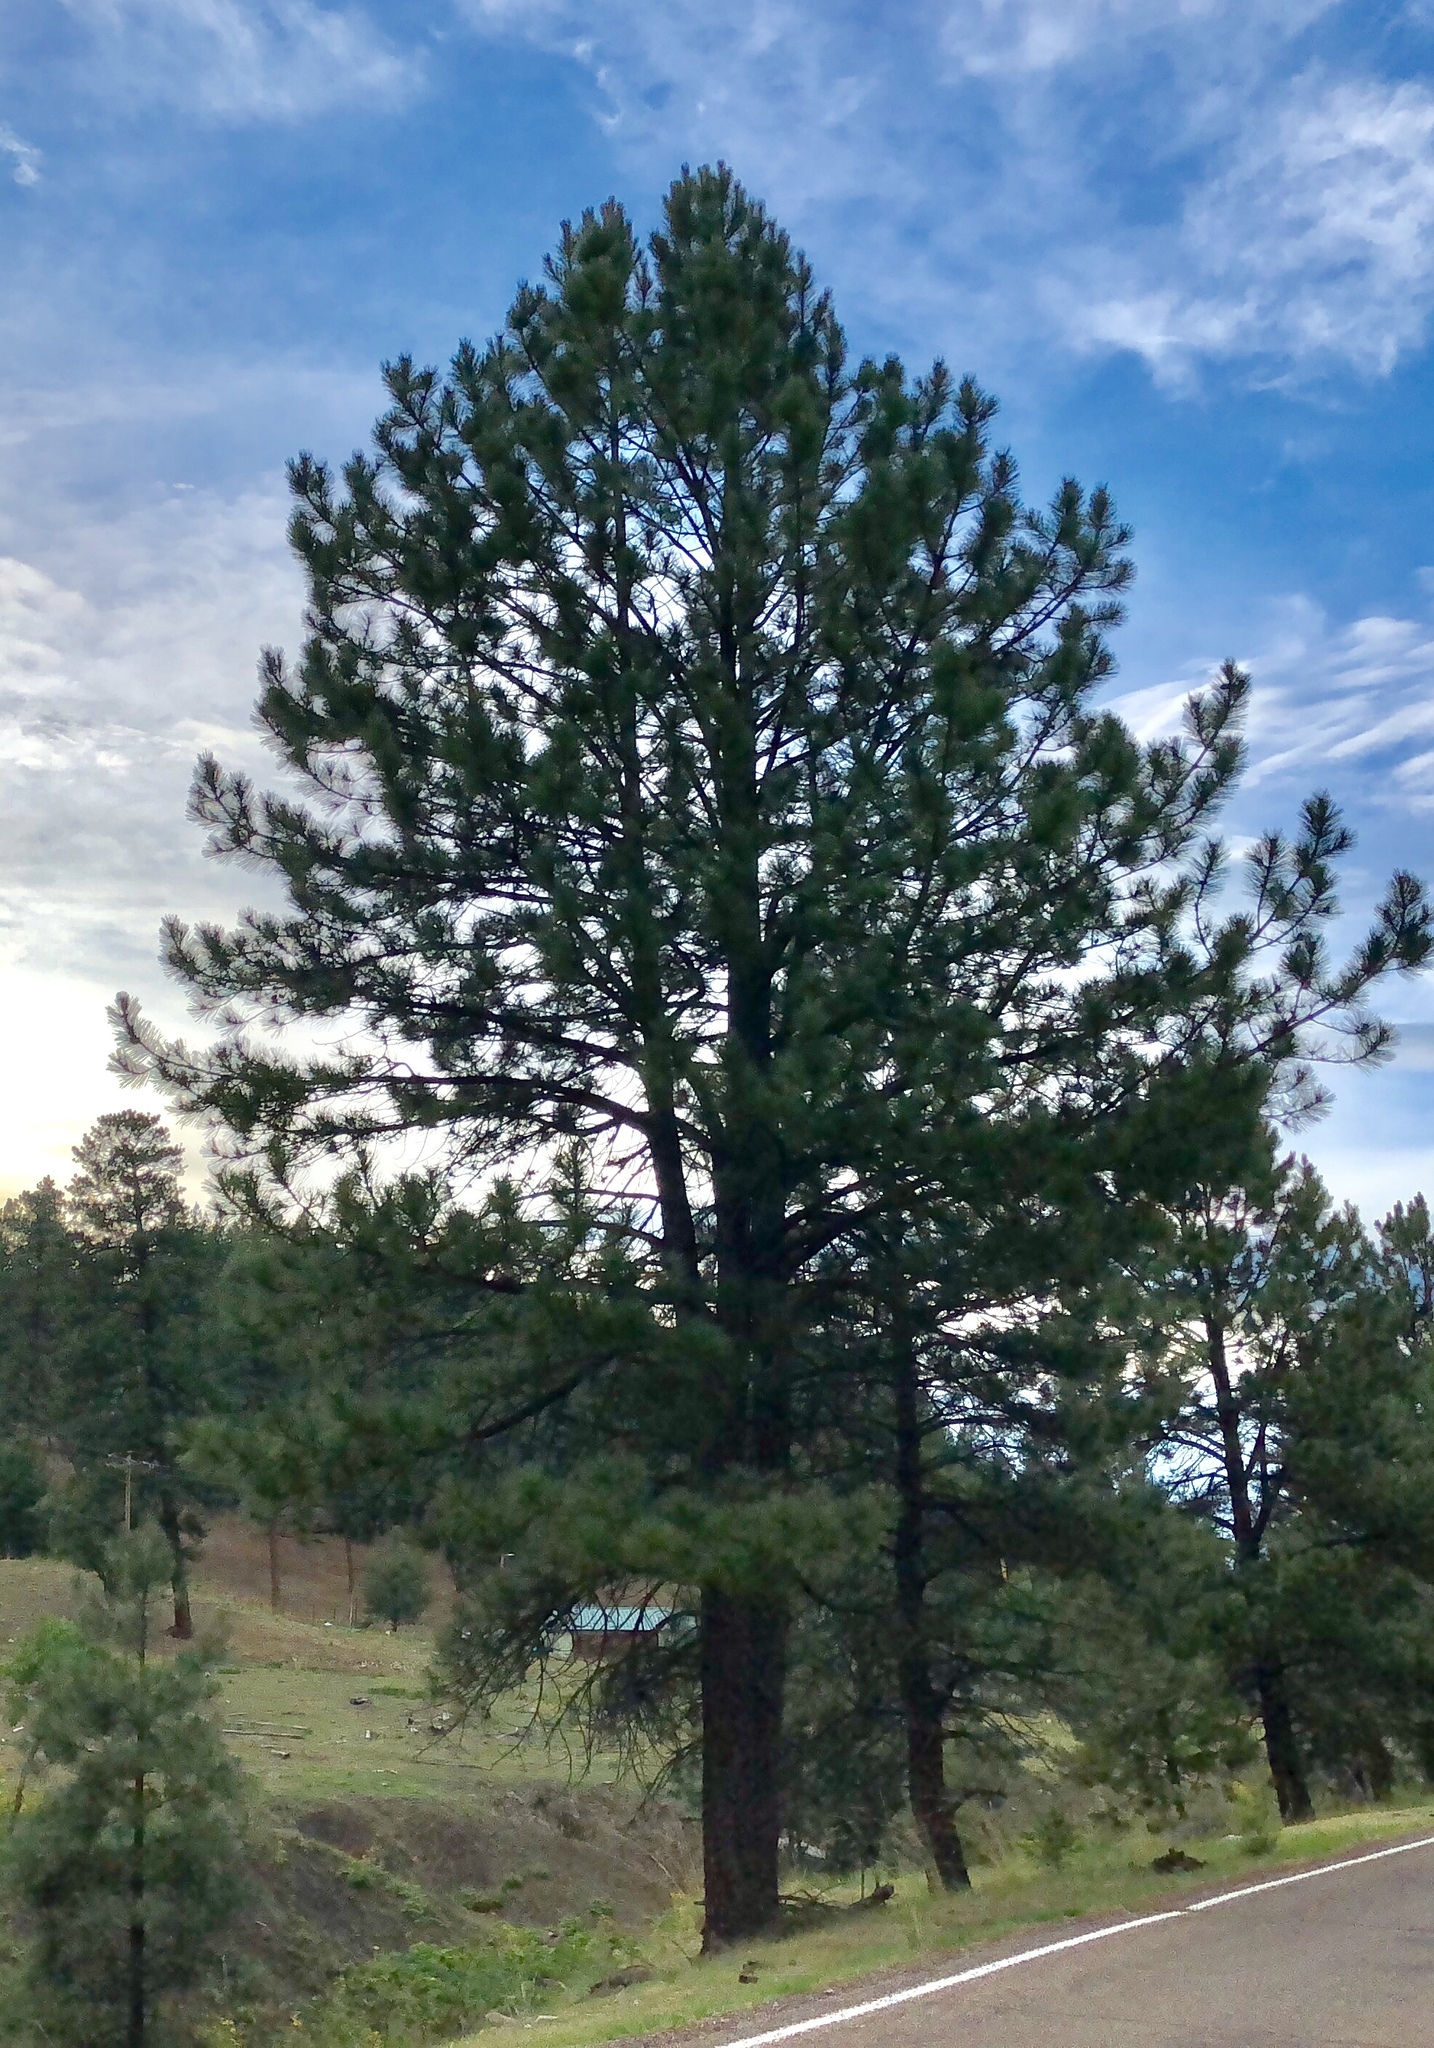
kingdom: Plantae
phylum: Tracheophyta
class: Pinopsida
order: Pinales
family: Pinaceae
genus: Pinus
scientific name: Pinus ponderosa
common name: Western yellow-pine
